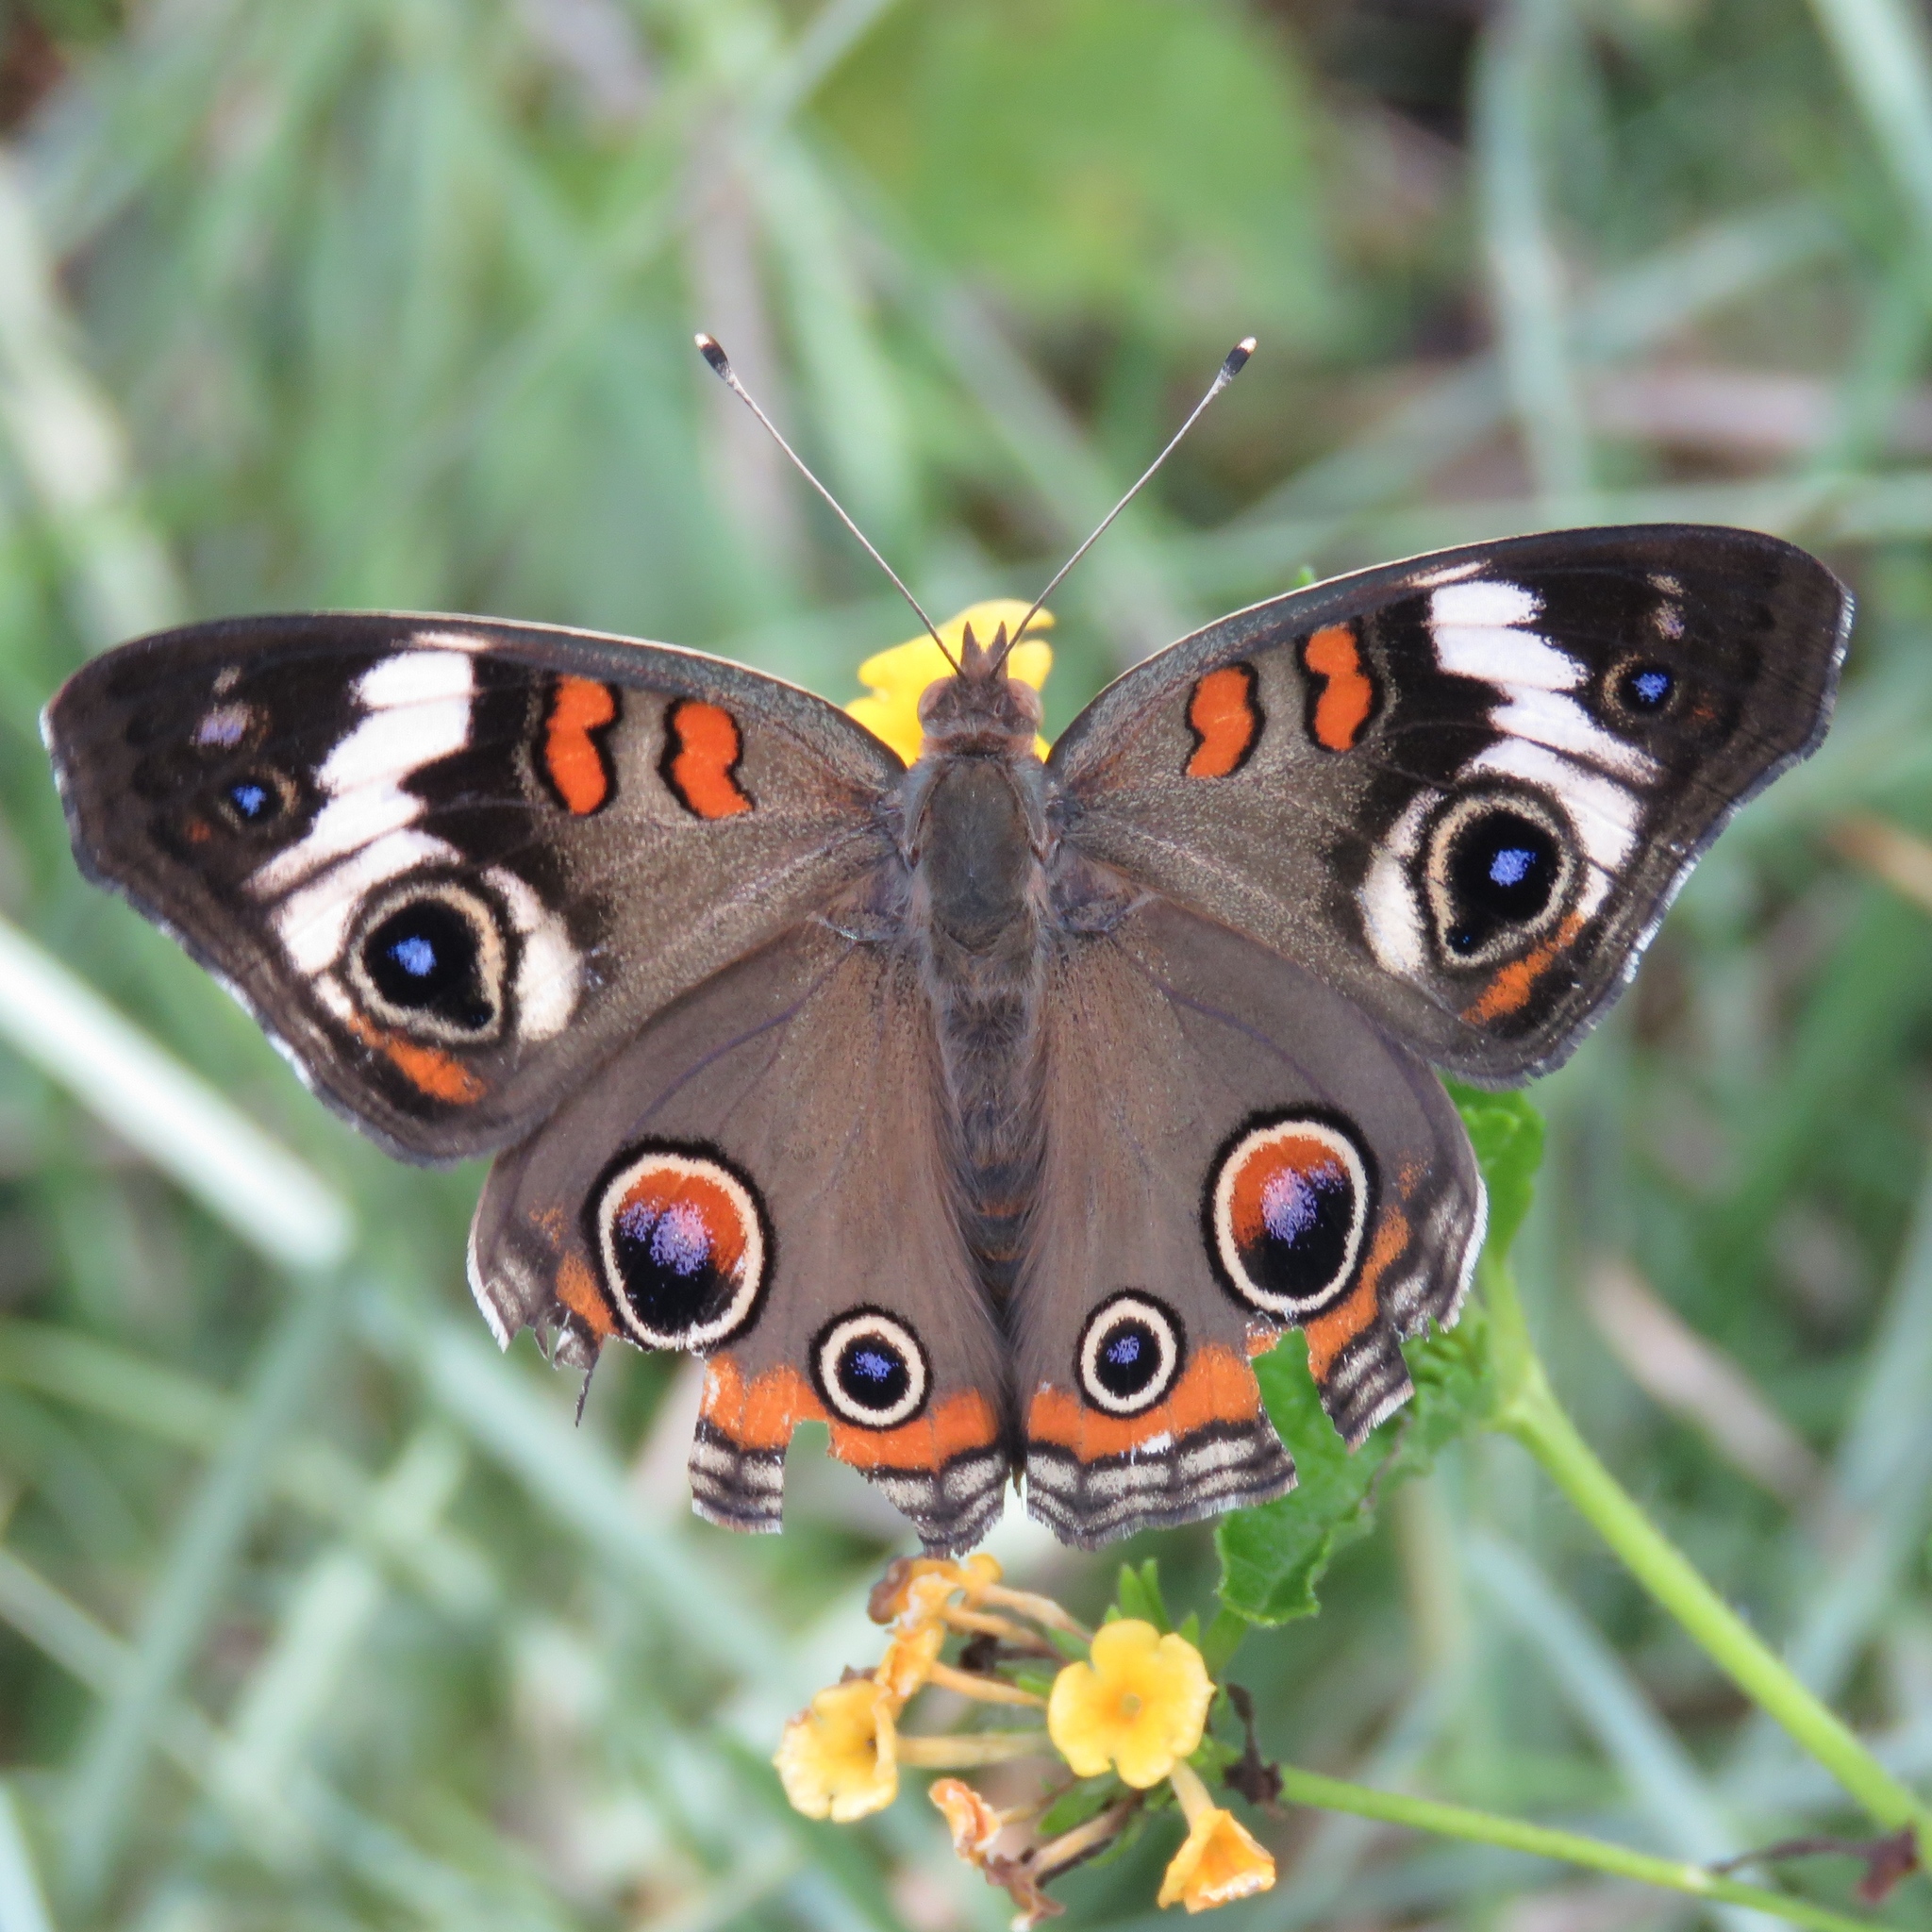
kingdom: Animalia
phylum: Arthropoda
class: Insecta
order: Lepidoptera
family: Nymphalidae
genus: Junonia
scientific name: Junonia coenia
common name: Common buckeye
